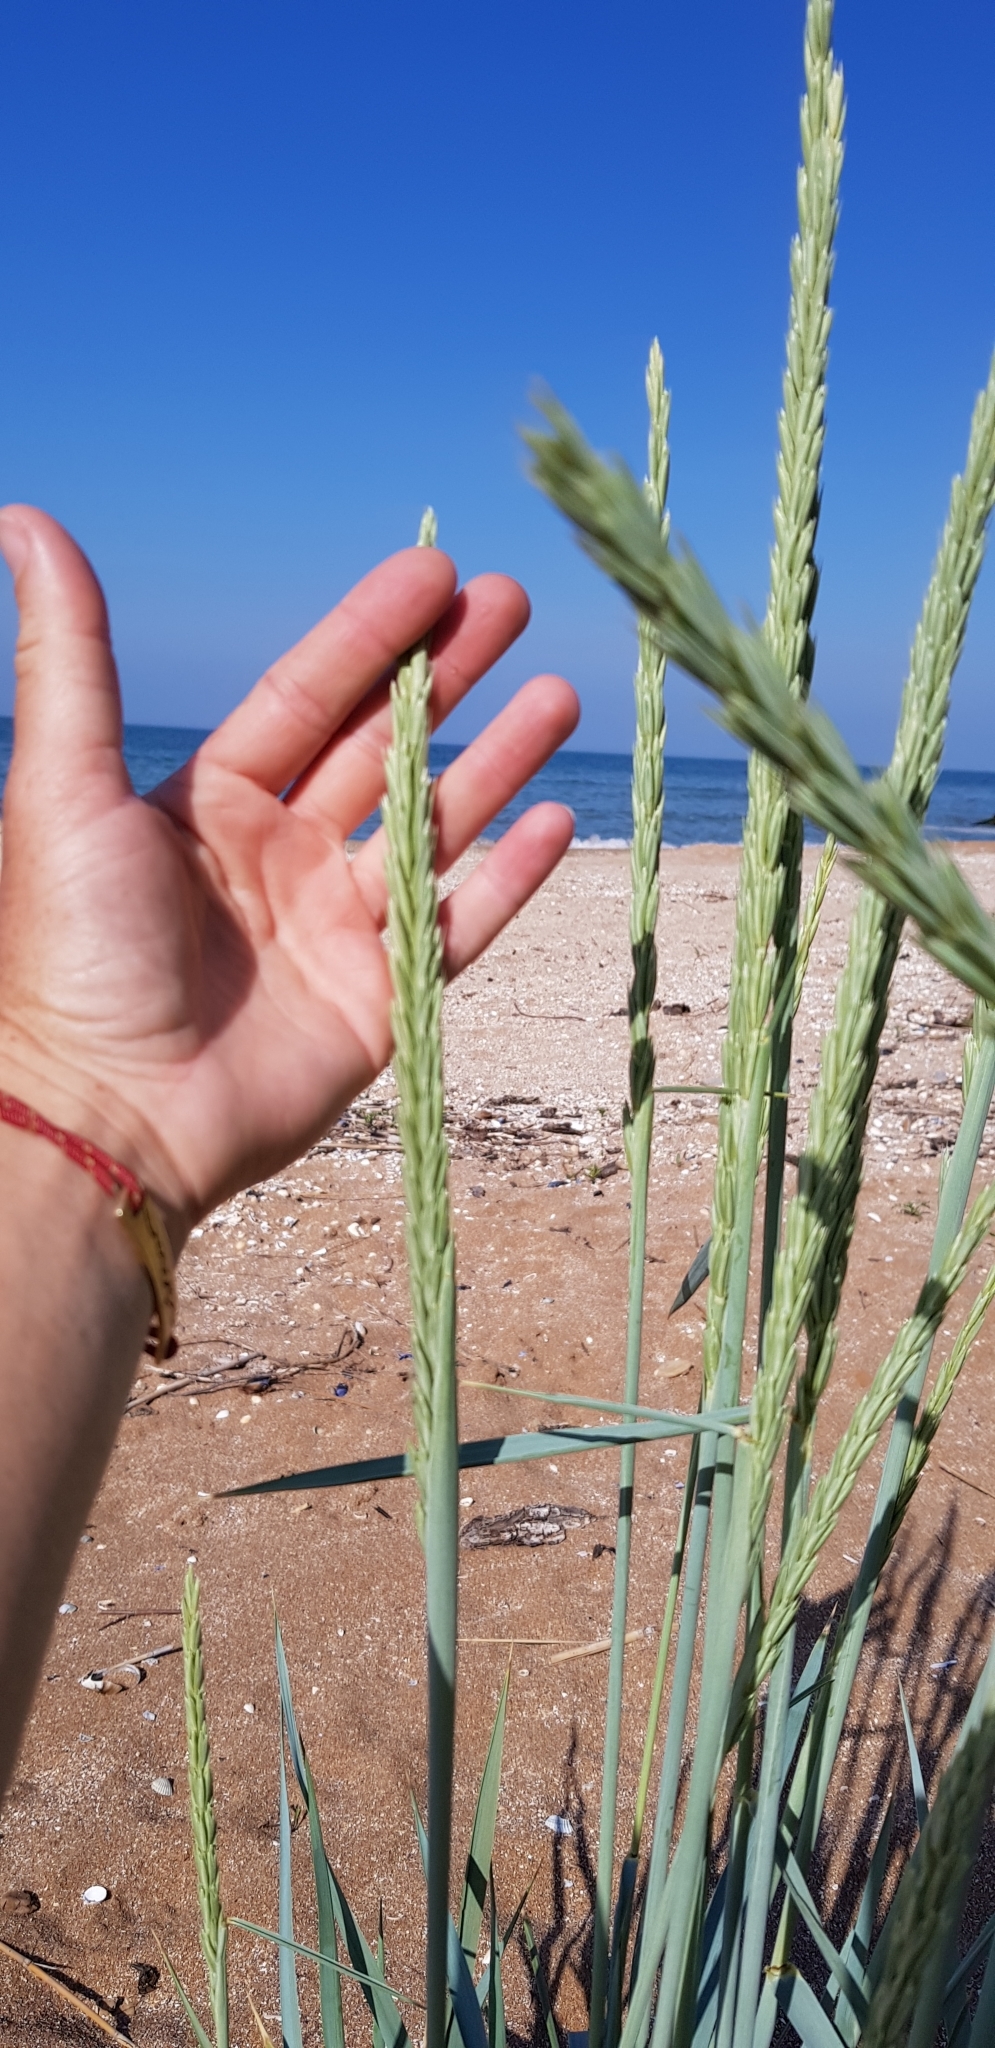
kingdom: Plantae
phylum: Tracheophyta
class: Liliopsida
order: Poales
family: Poaceae
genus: Leymus
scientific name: Leymus racemosus
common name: Mammoth wildrye
